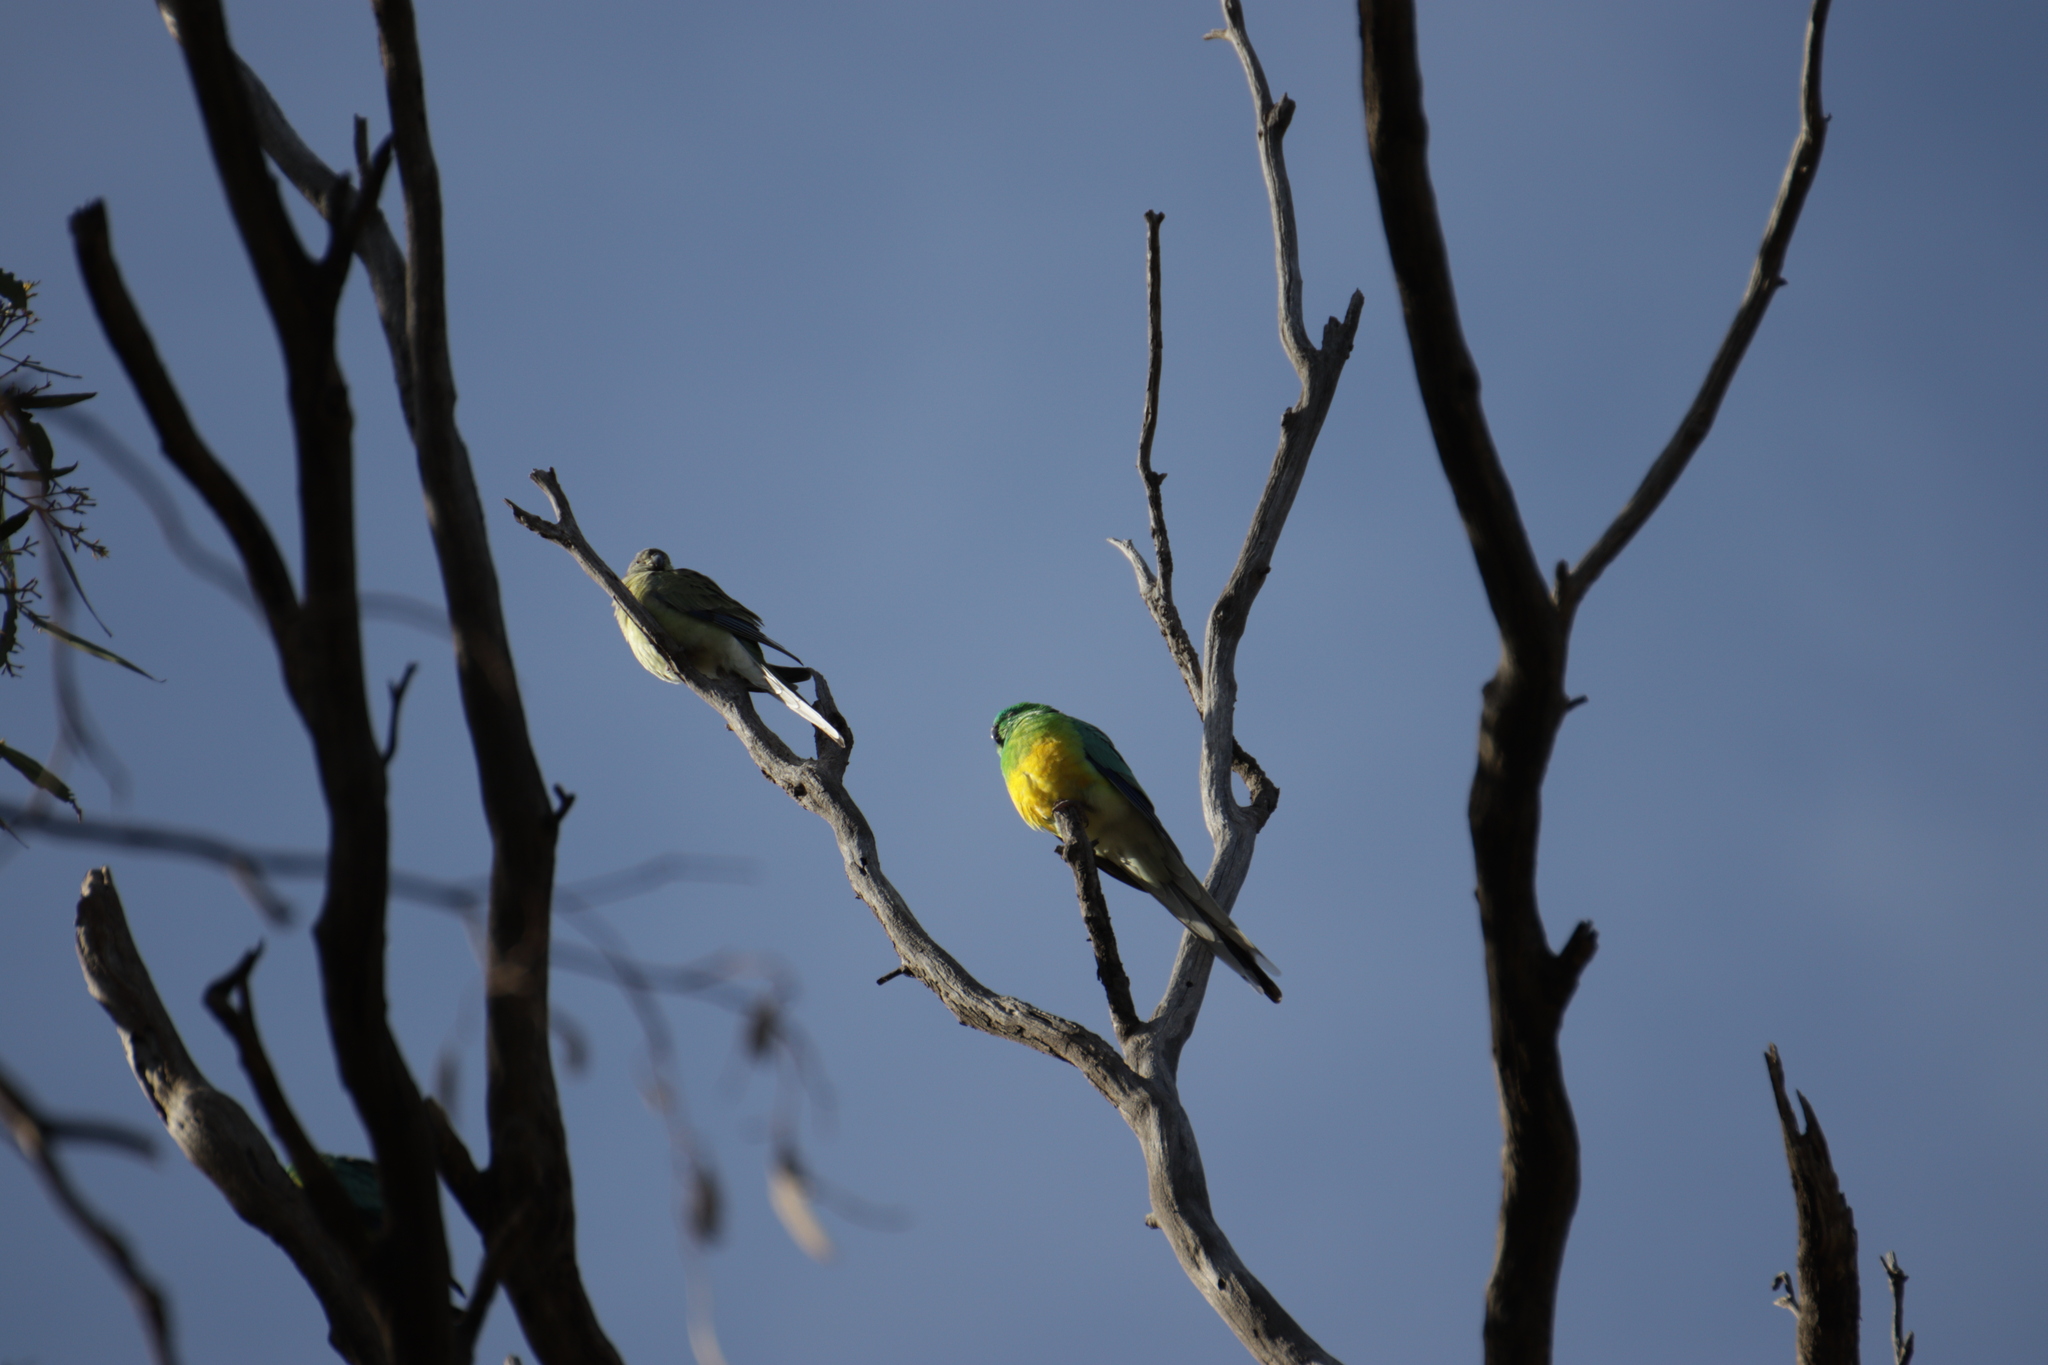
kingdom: Animalia
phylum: Chordata
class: Aves
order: Psittaciformes
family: Psittacidae
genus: Psephotus
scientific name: Psephotus haematonotus
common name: Red-rumped parrot
